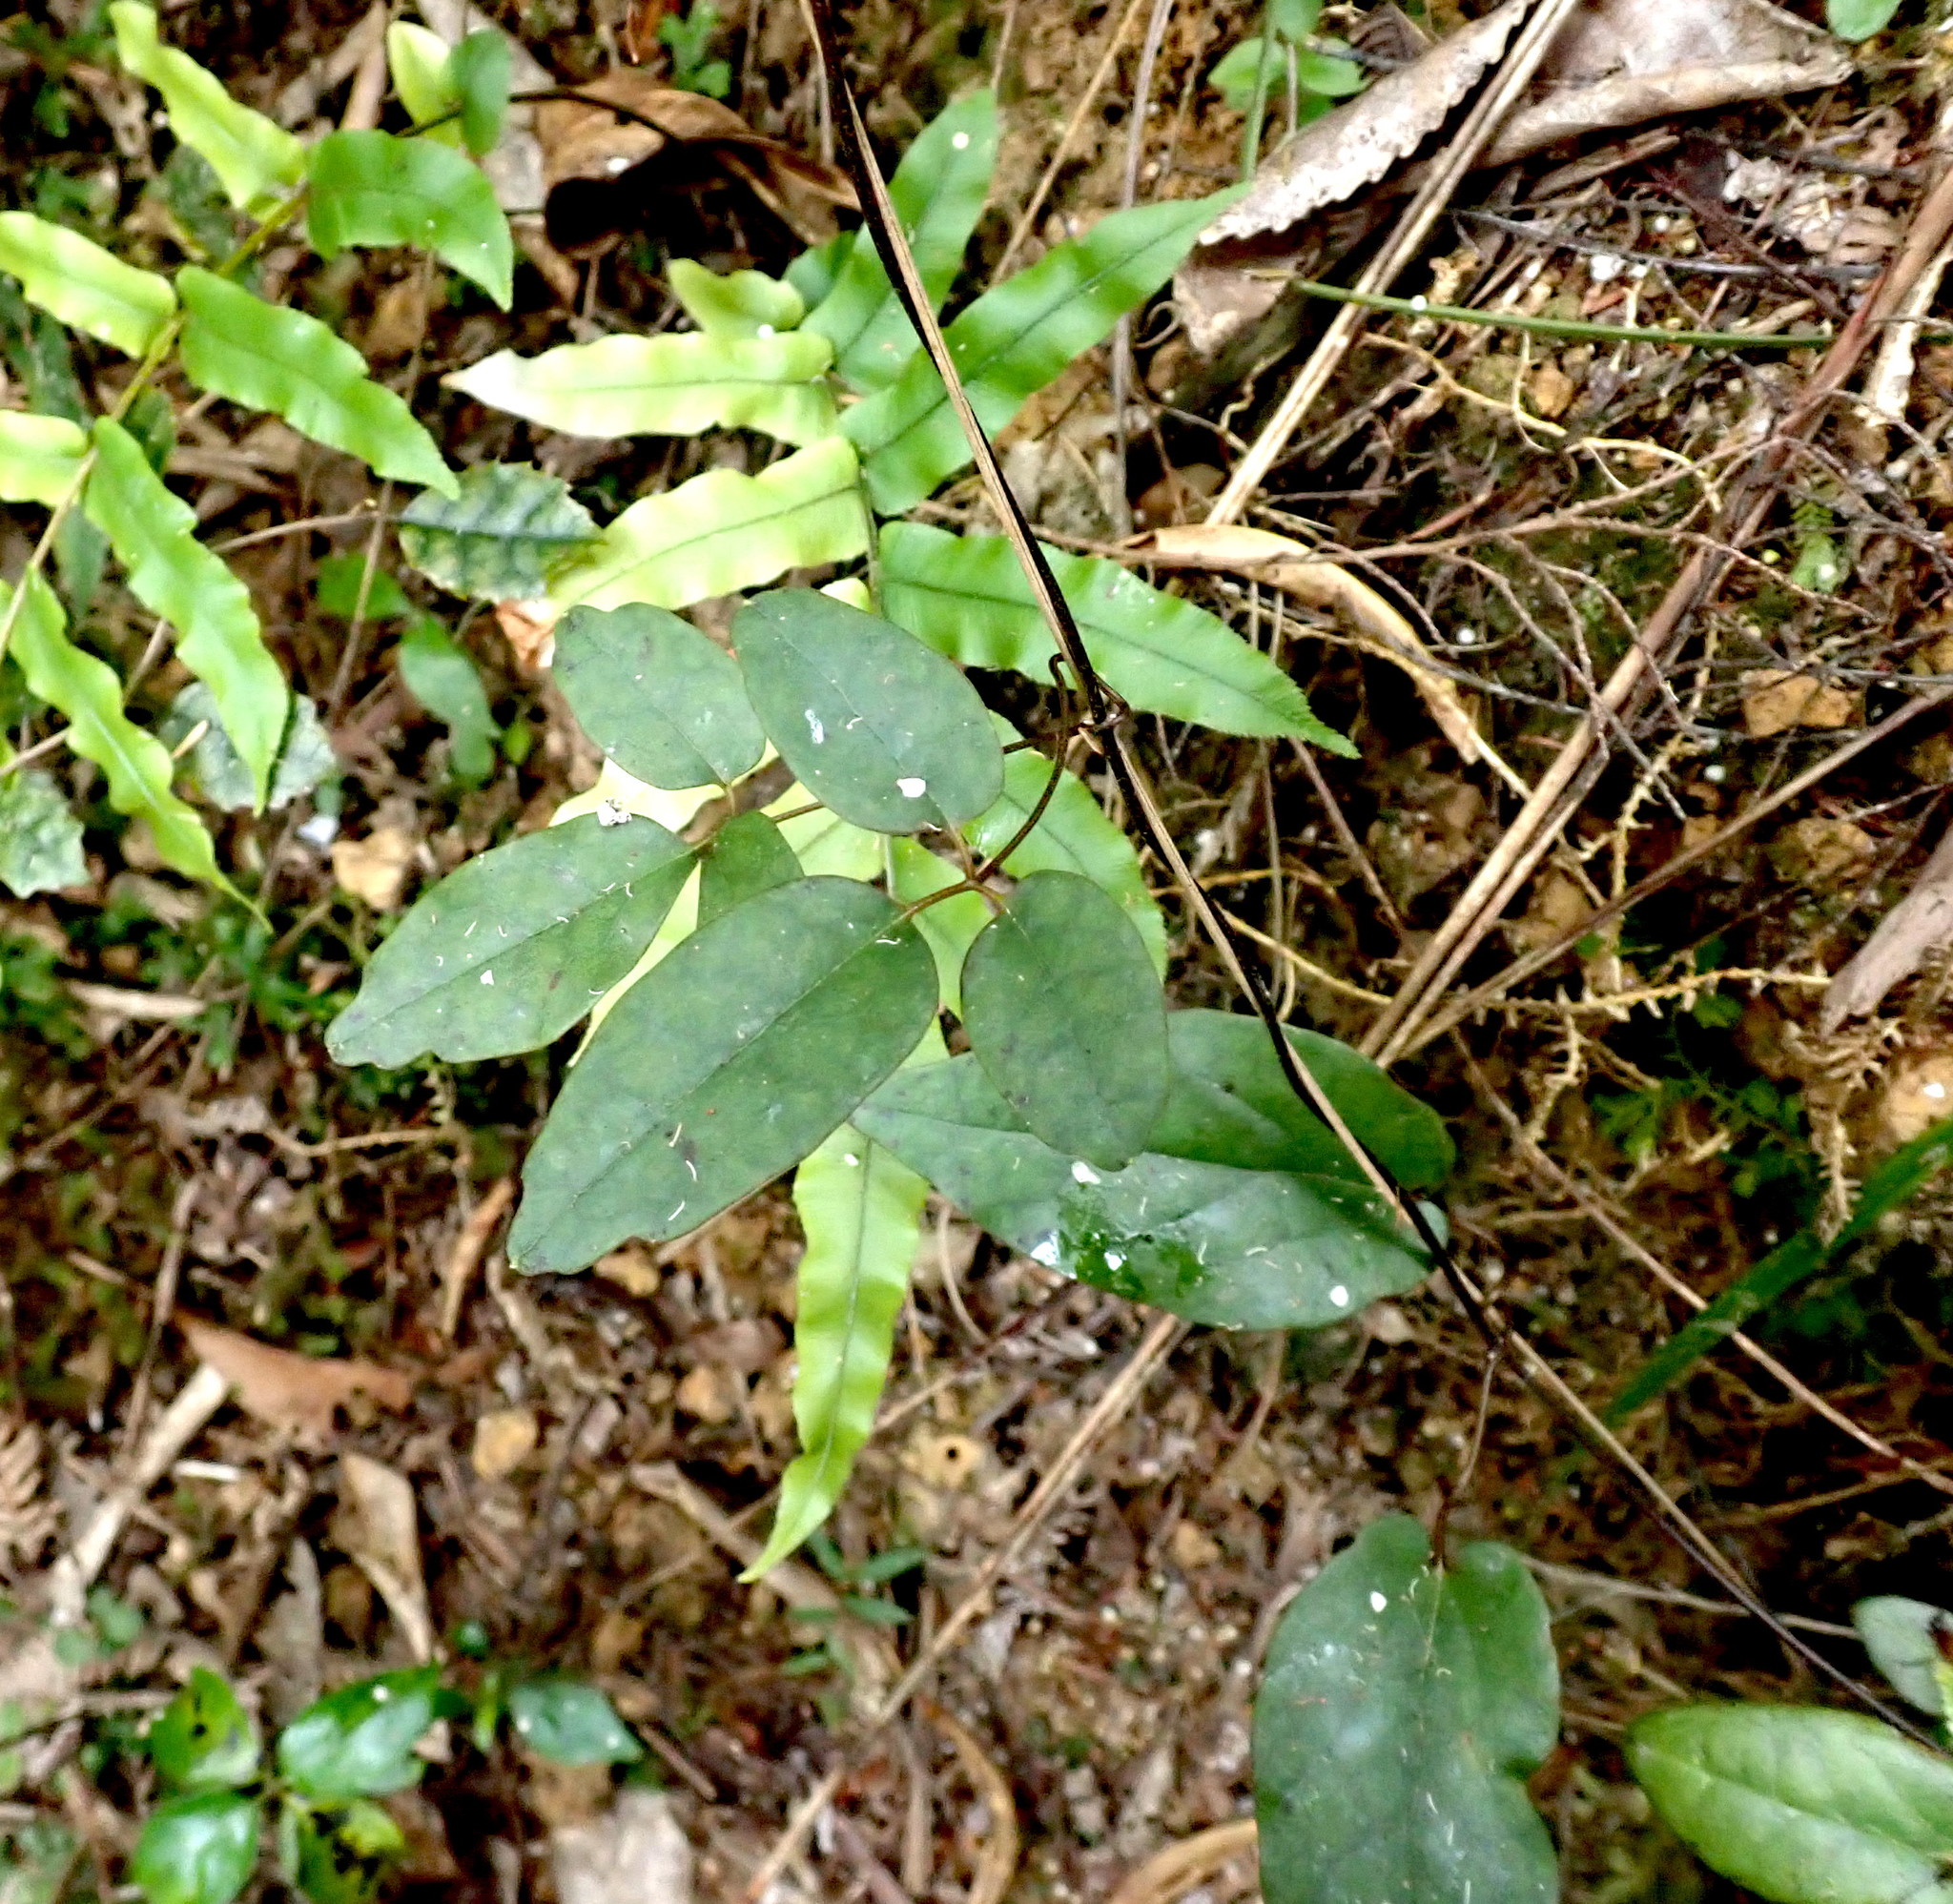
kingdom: Plantae
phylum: Tracheophyta
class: Magnoliopsida
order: Ranunculales
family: Ranunculaceae
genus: Clematis
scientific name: Clematis paniculata
